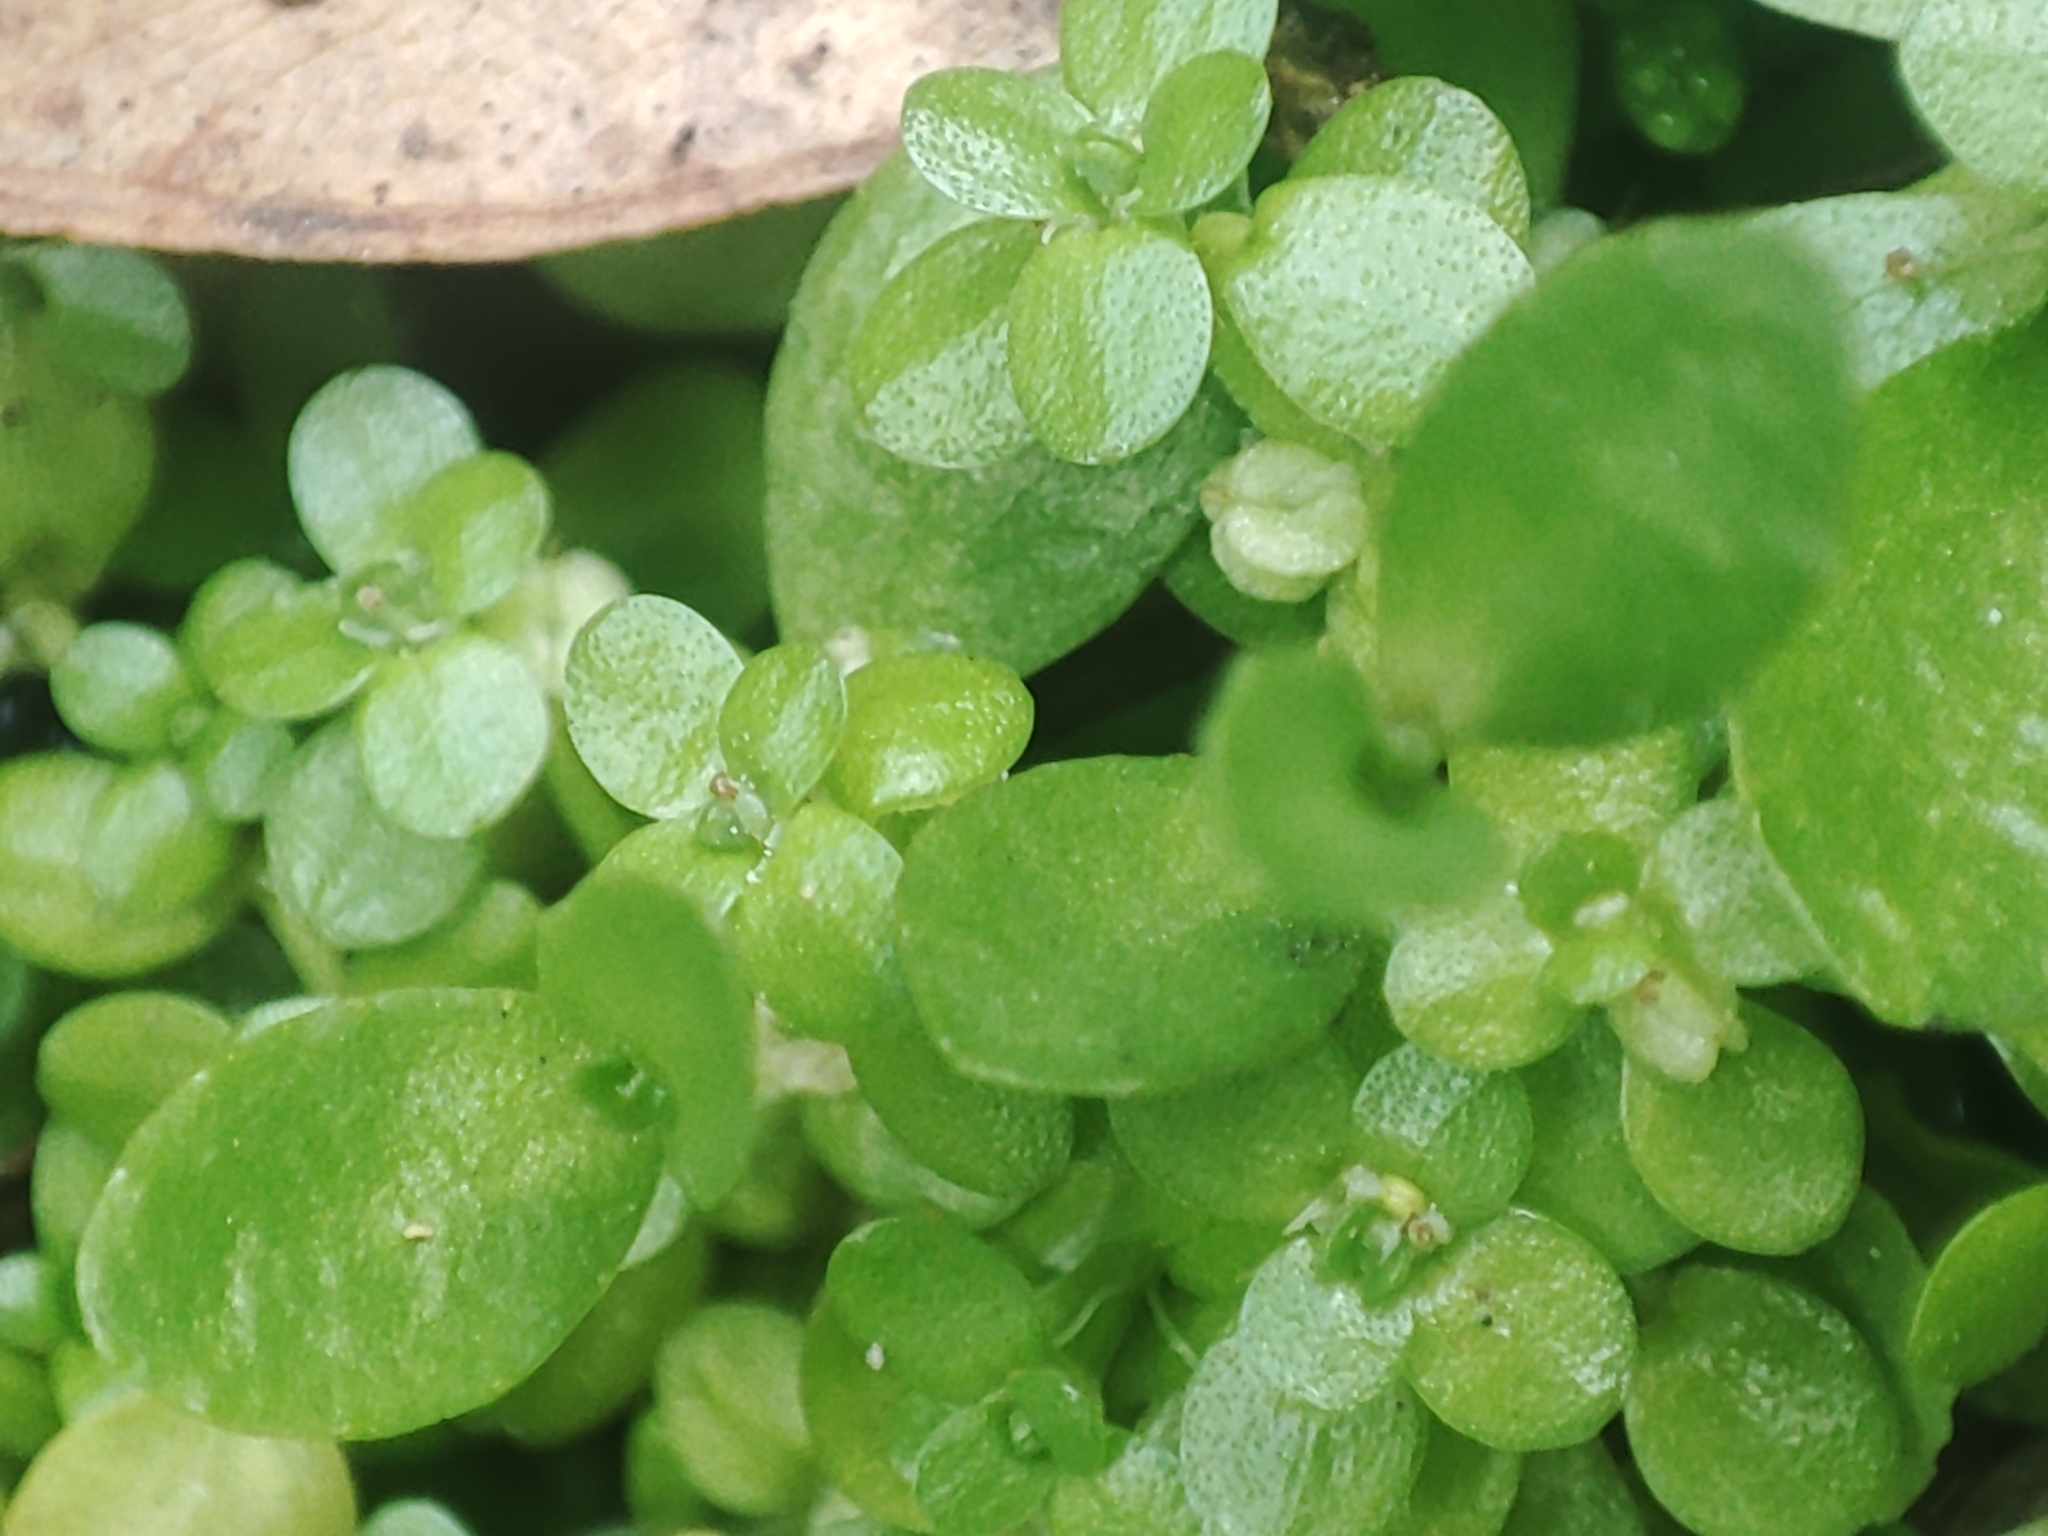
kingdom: Plantae
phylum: Tracheophyta
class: Magnoliopsida
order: Lamiales
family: Plantaginaceae
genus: Callitriche
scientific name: Callitriche stagnalis
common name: Common water-starwort
